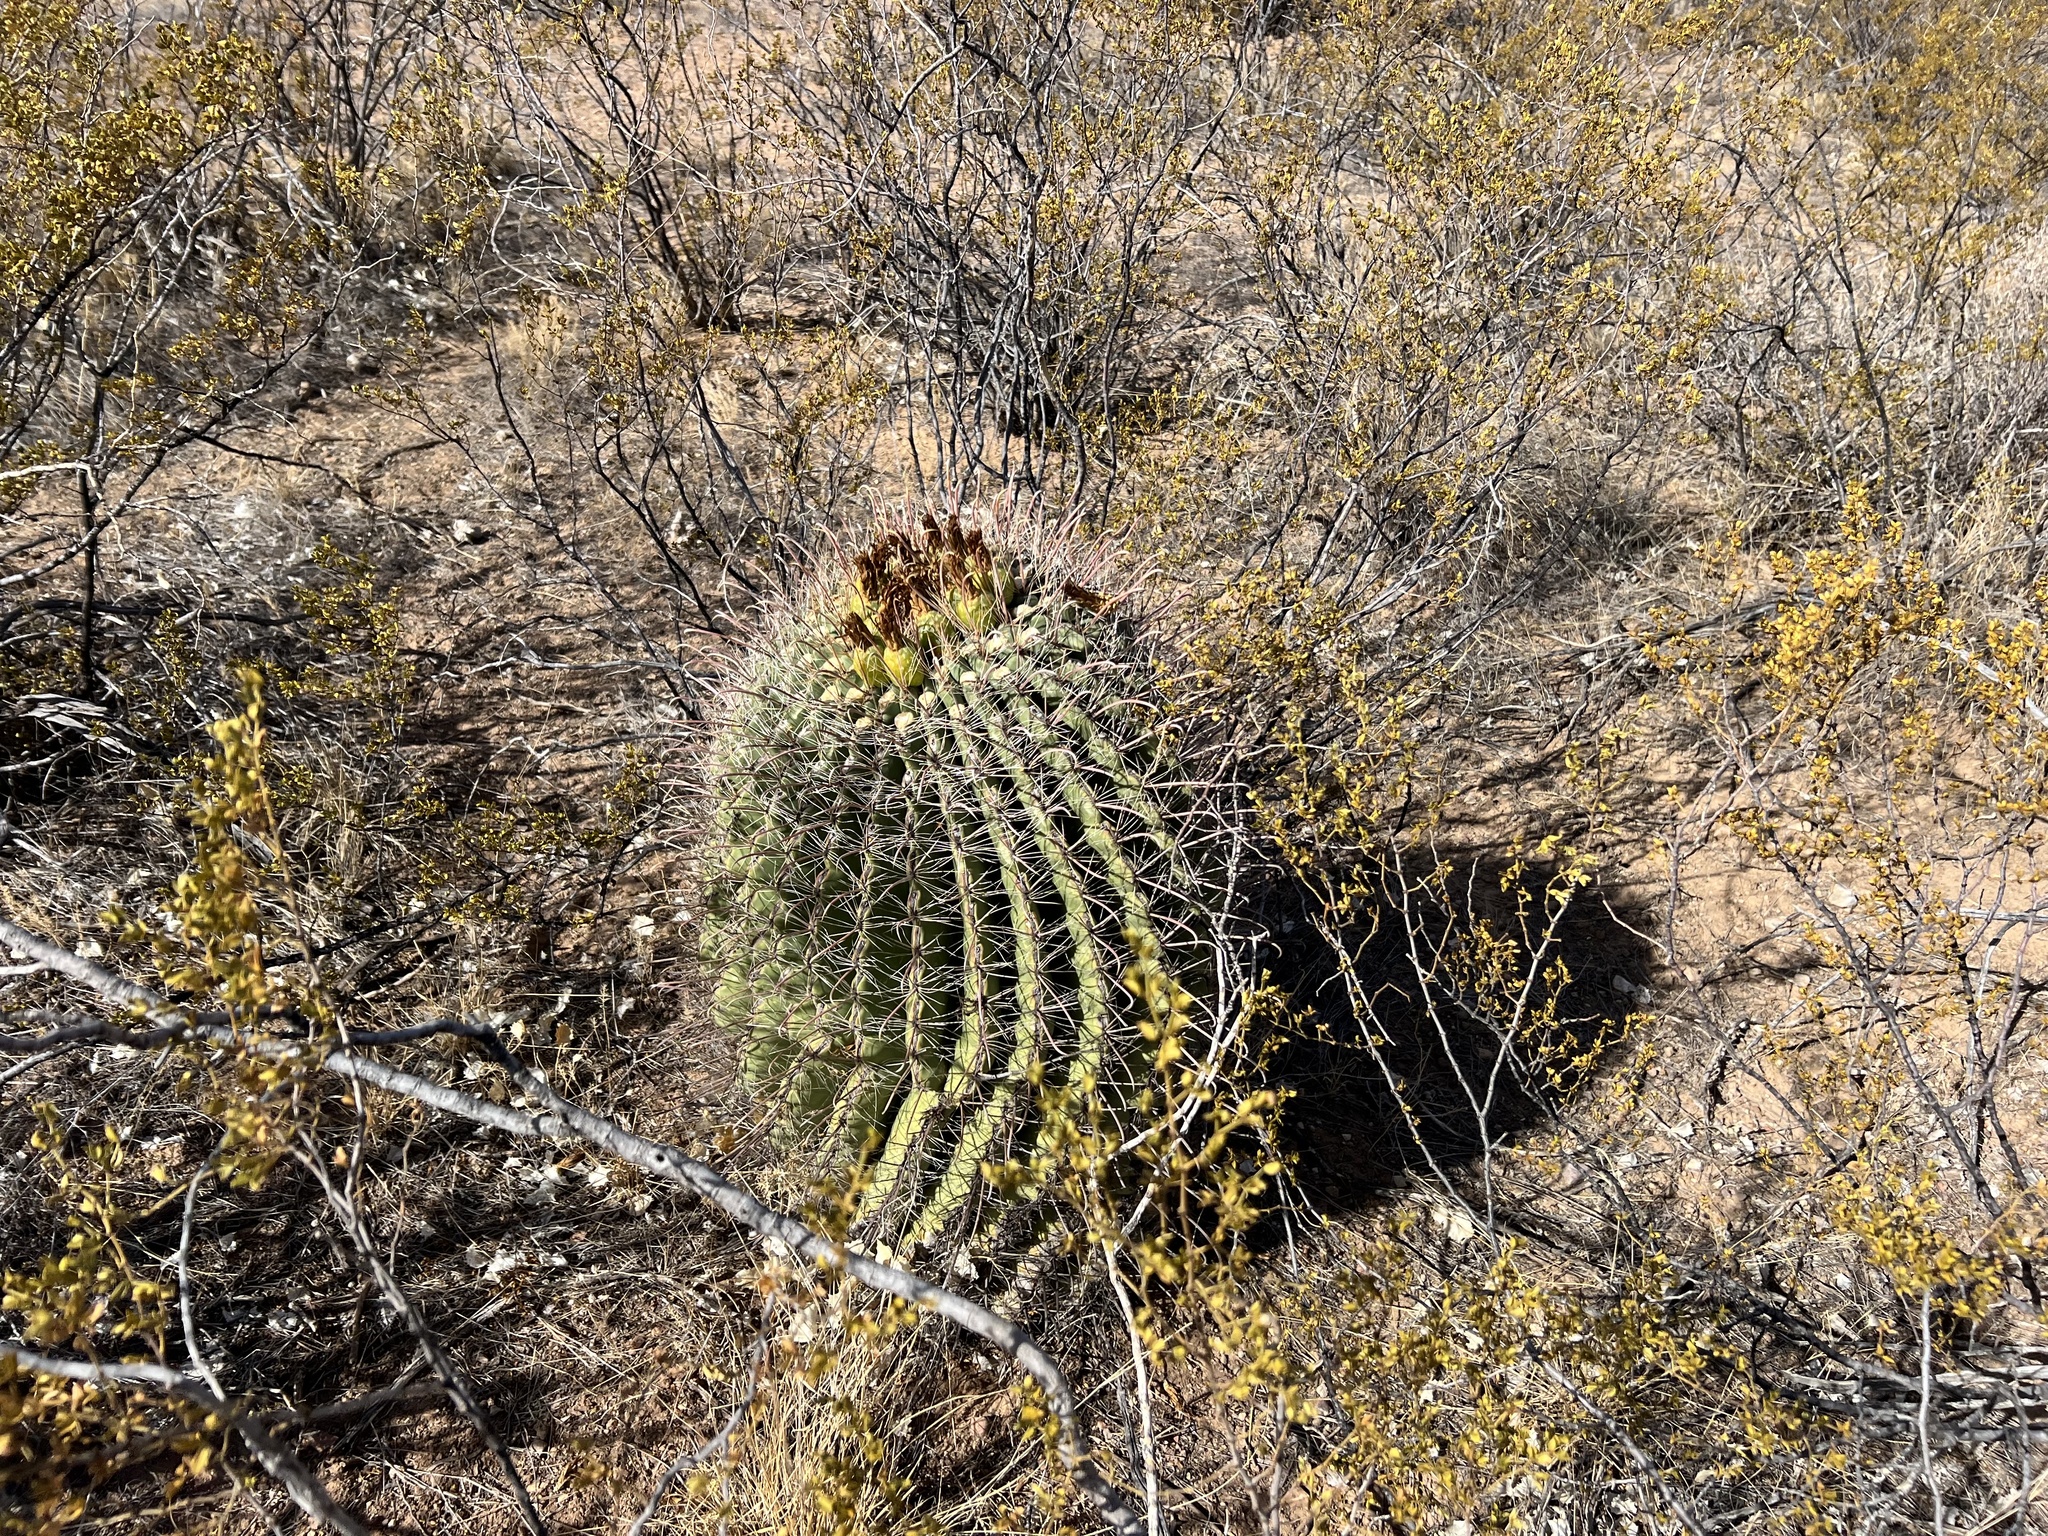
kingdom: Plantae
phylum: Tracheophyta
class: Magnoliopsida
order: Caryophyllales
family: Cactaceae
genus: Ferocactus
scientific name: Ferocactus wislizeni
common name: Candy barrel cactus
